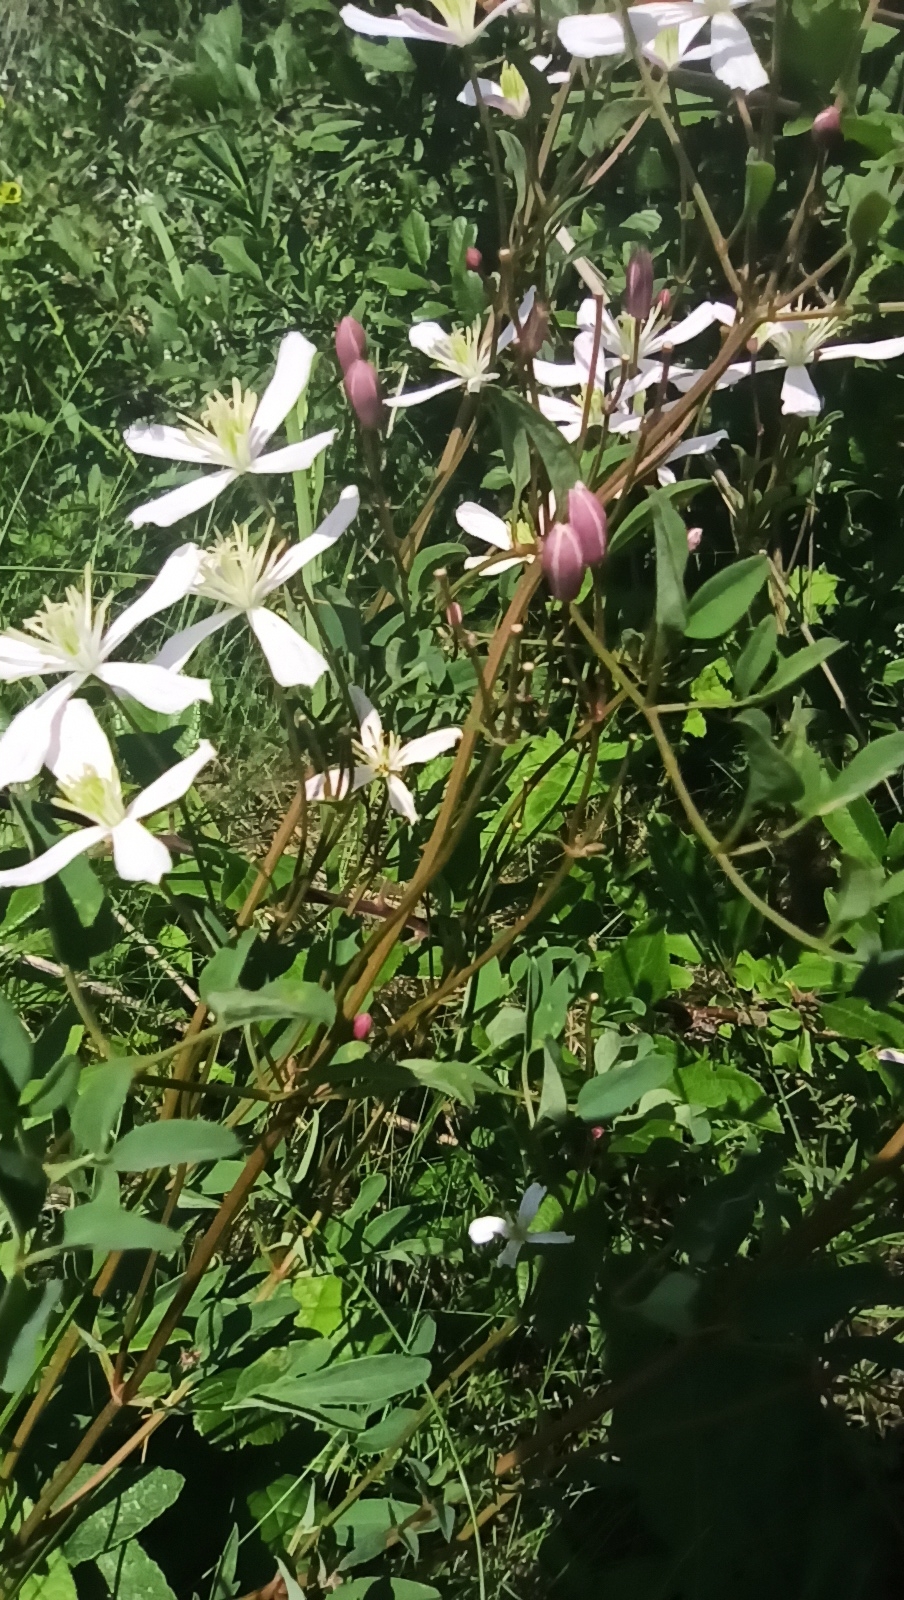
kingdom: Plantae
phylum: Tracheophyta
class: Magnoliopsida
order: Ranunculales
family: Ranunculaceae
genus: Clematis
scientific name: Clematis lathyrifolia
